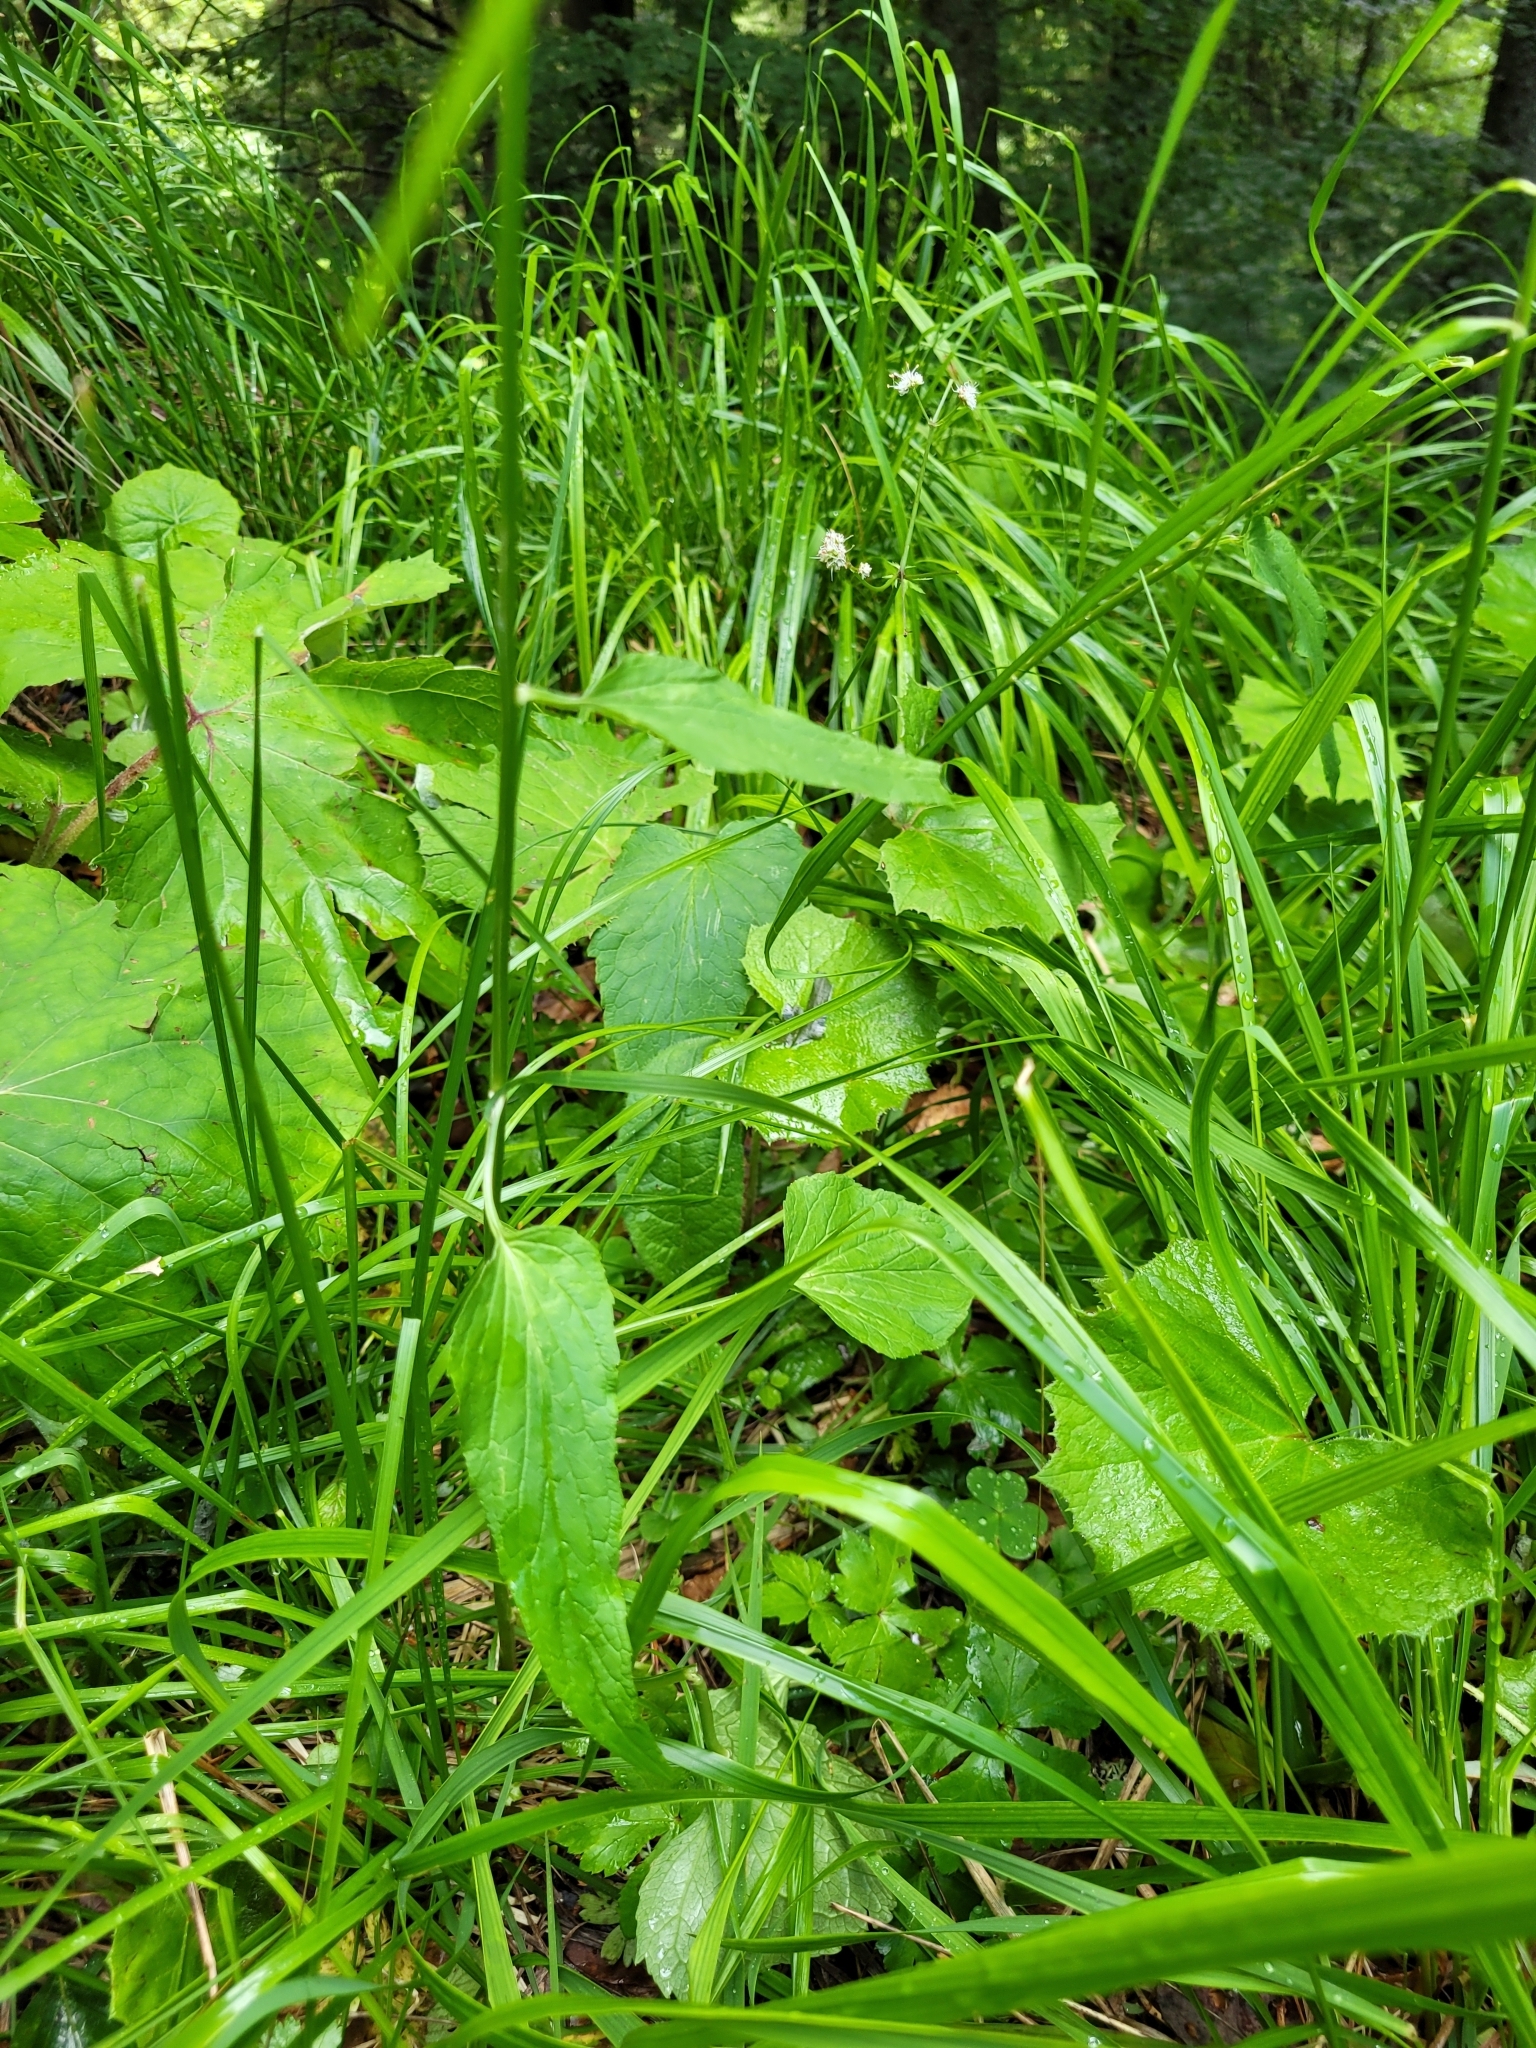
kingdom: Plantae
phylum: Tracheophyta
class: Magnoliopsida
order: Asterales
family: Campanulaceae
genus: Phyteuma
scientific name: Phyteuma spicatum
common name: Spiked rampion
